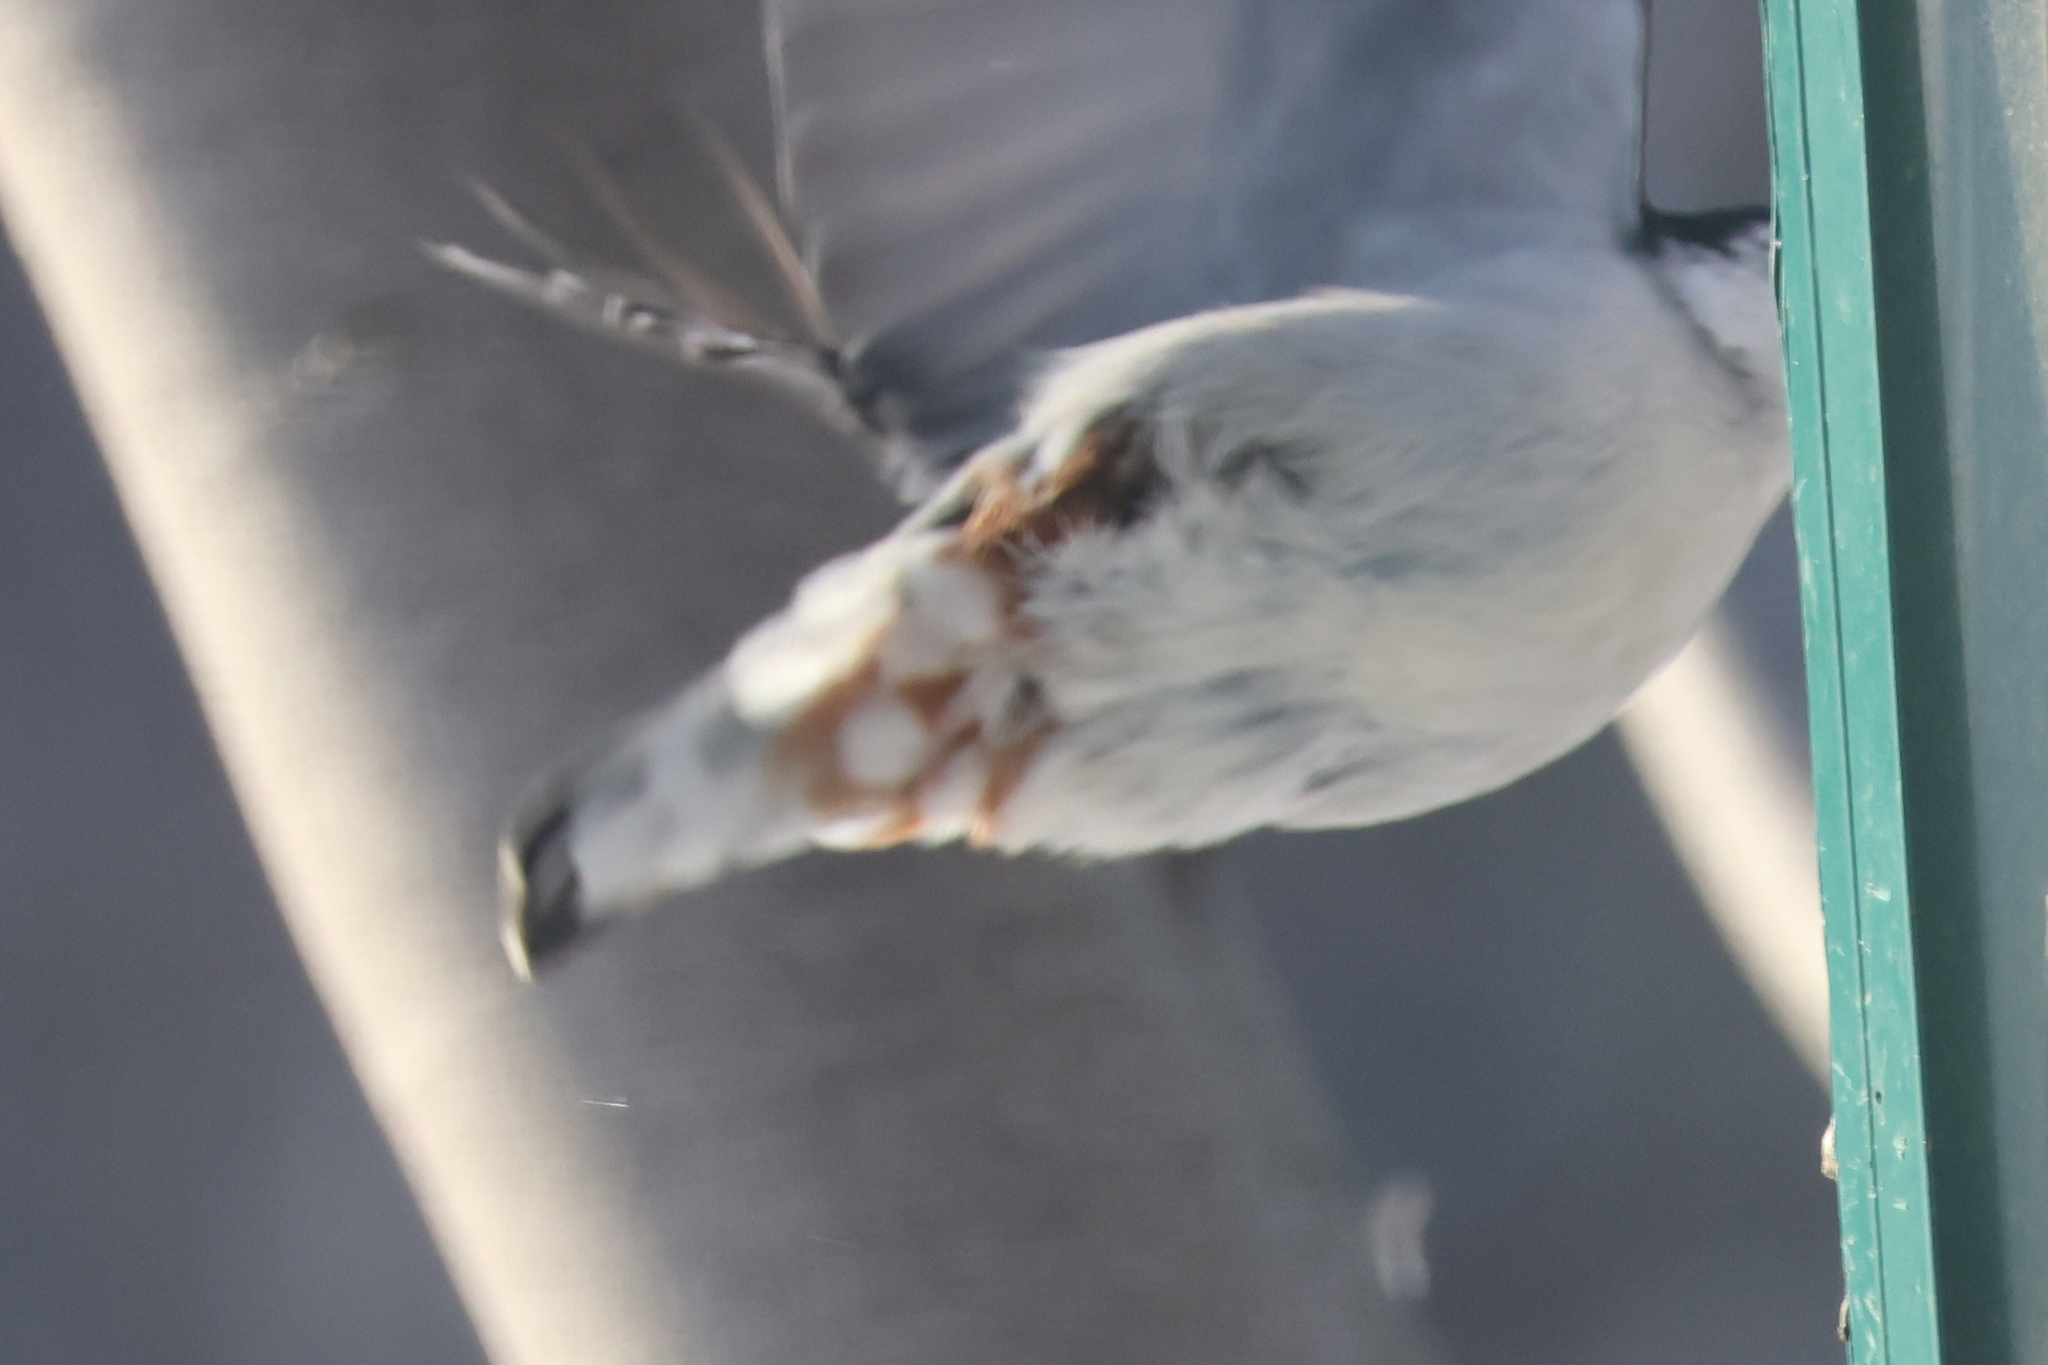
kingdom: Animalia
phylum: Chordata
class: Aves
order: Passeriformes
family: Sittidae
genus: Sitta
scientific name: Sitta carolinensis
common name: White-breasted nuthatch
